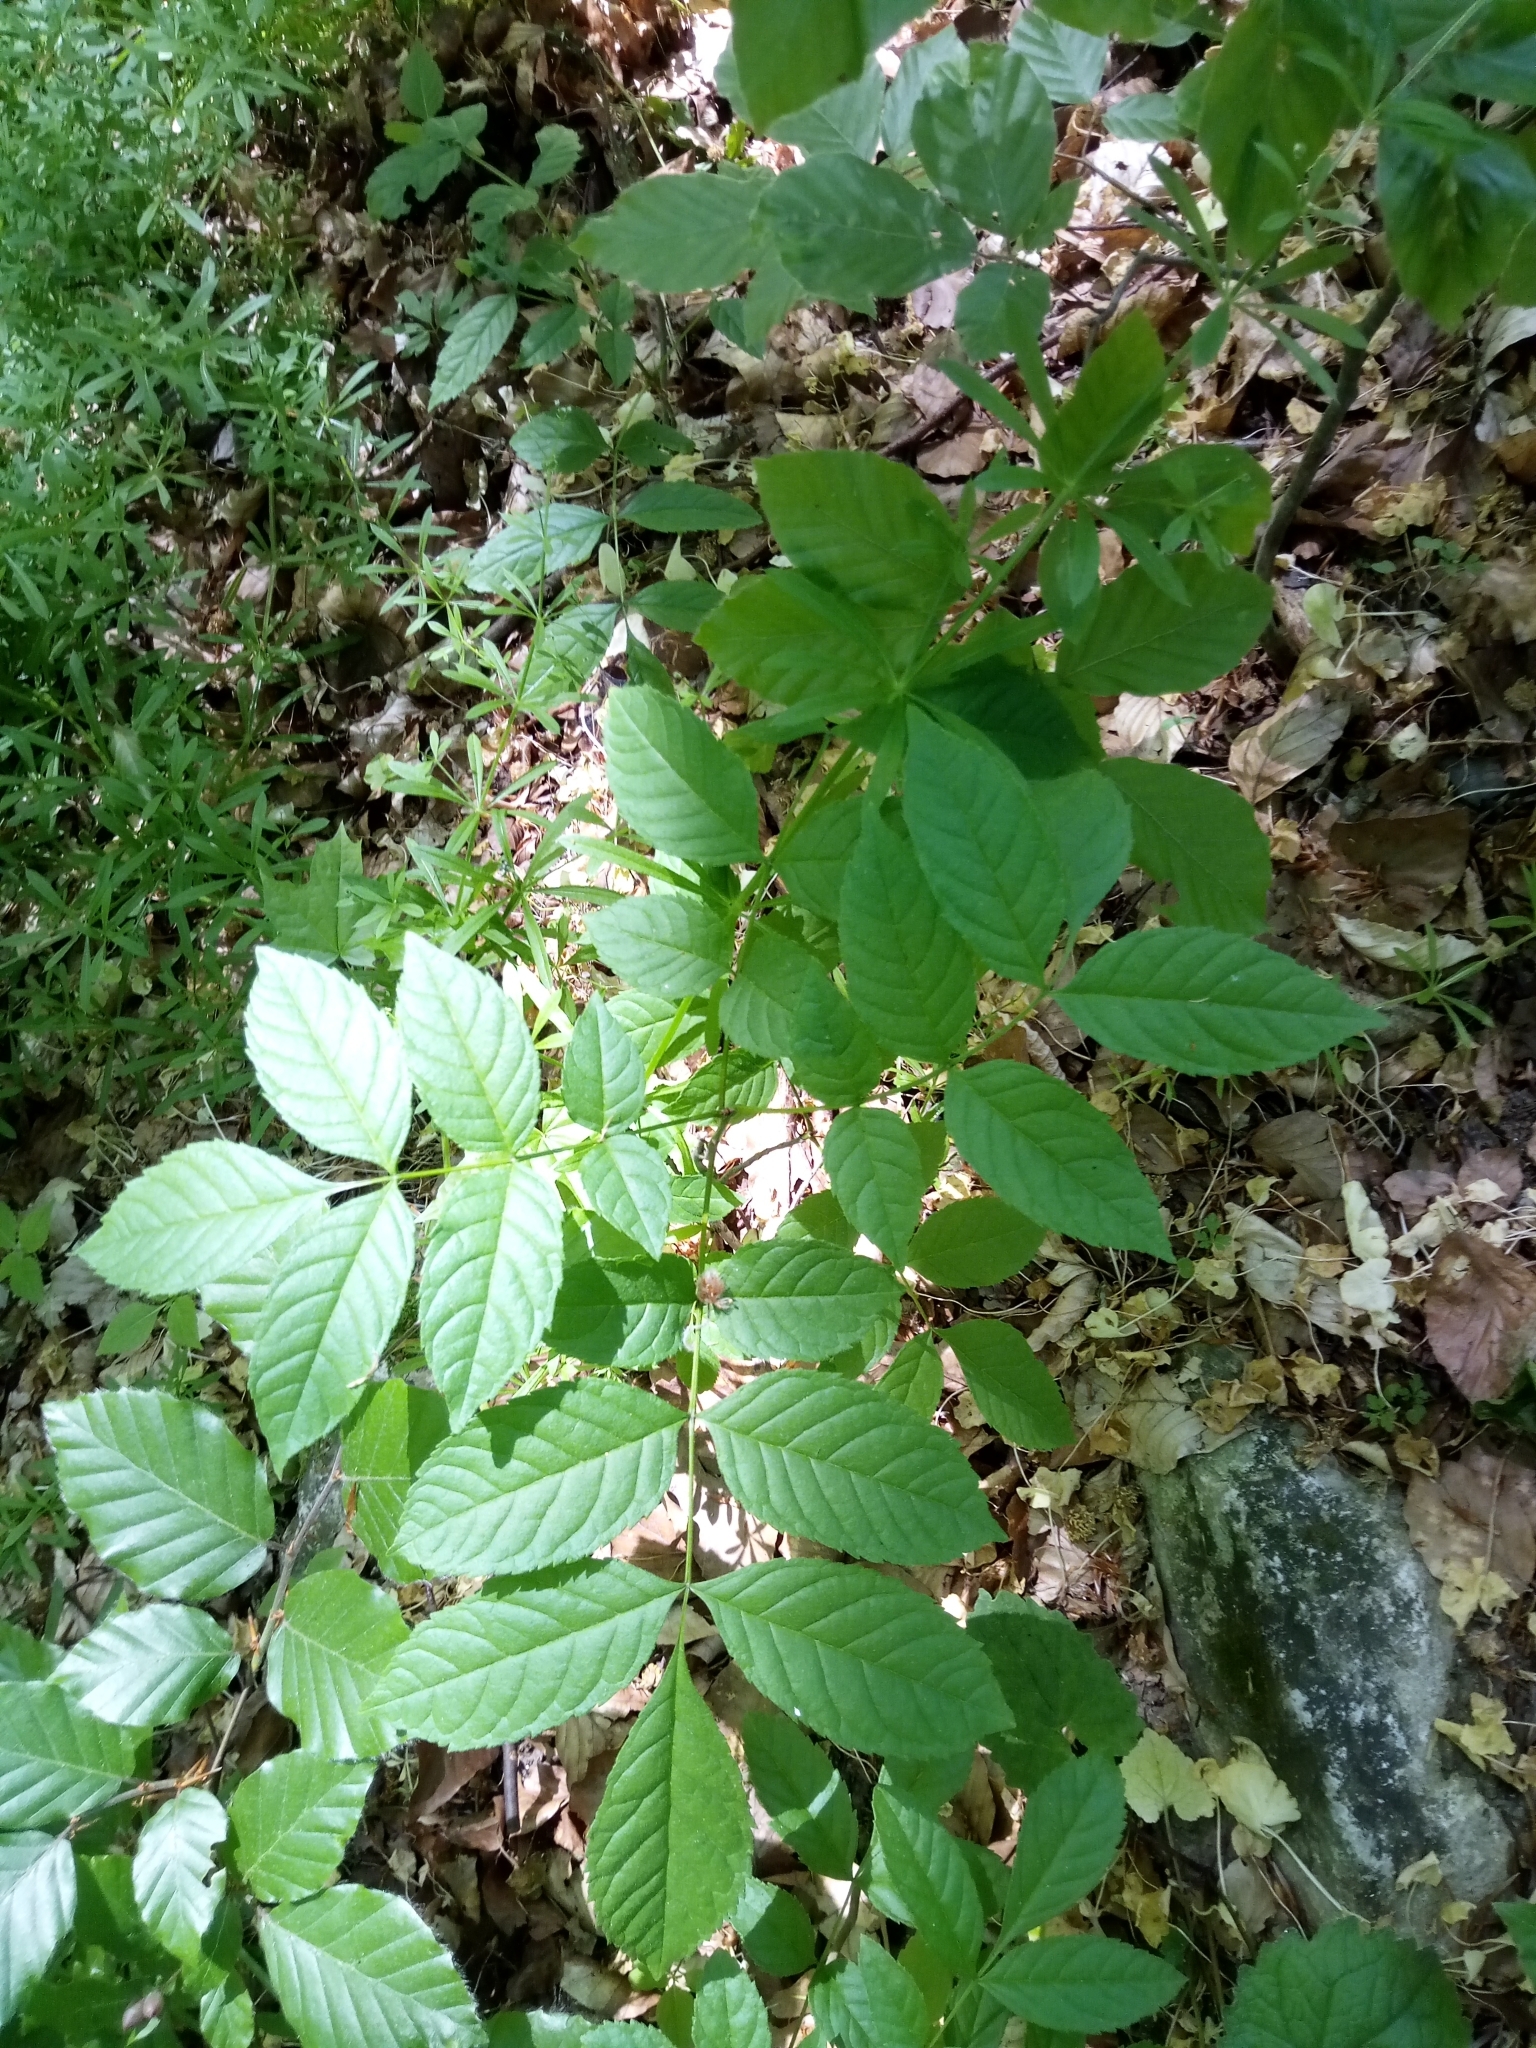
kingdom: Plantae
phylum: Tracheophyta
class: Magnoliopsida
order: Lamiales
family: Oleaceae
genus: Fraxinus
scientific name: Fraxinus excelsior
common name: European ash
